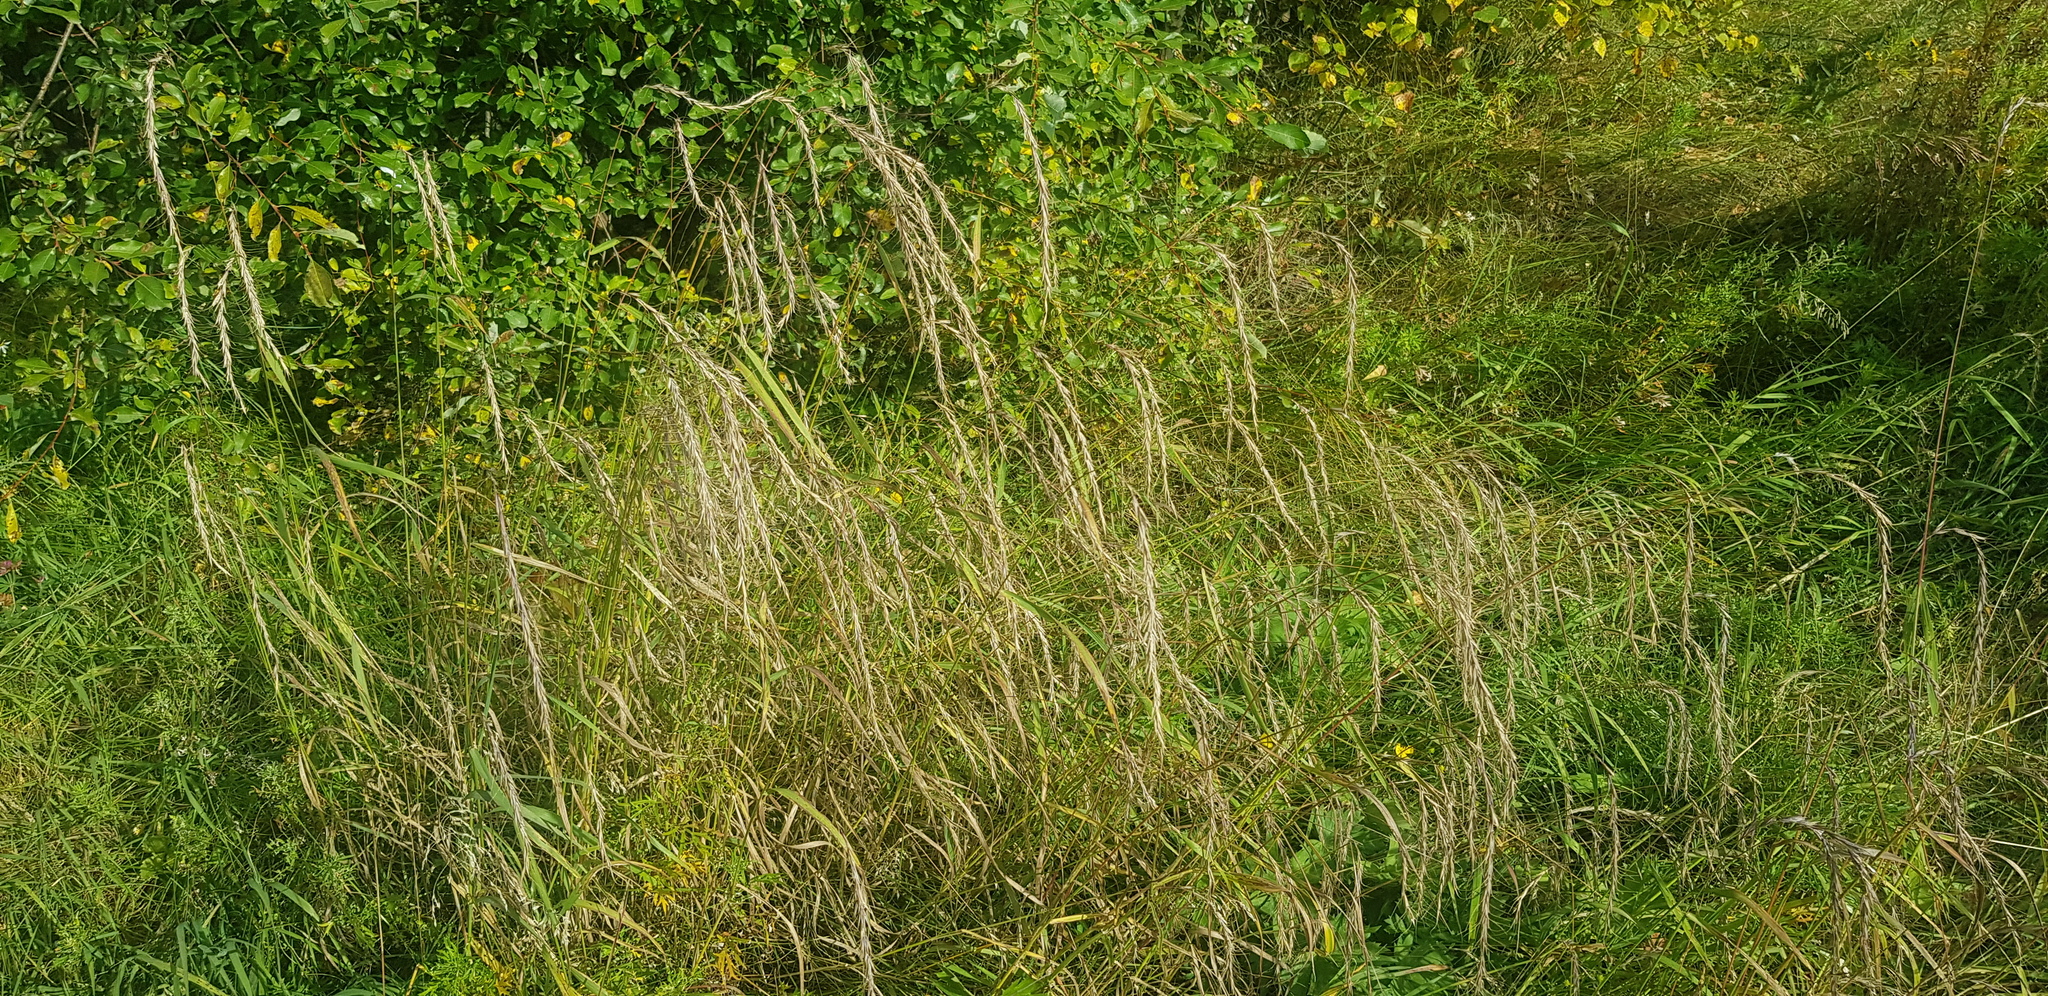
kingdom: Plantae
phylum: Tracheophyta
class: Liliopsida
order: Poales
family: Poaceae
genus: Elymus
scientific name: Elymus sibiricus
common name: Siberian wildrye
